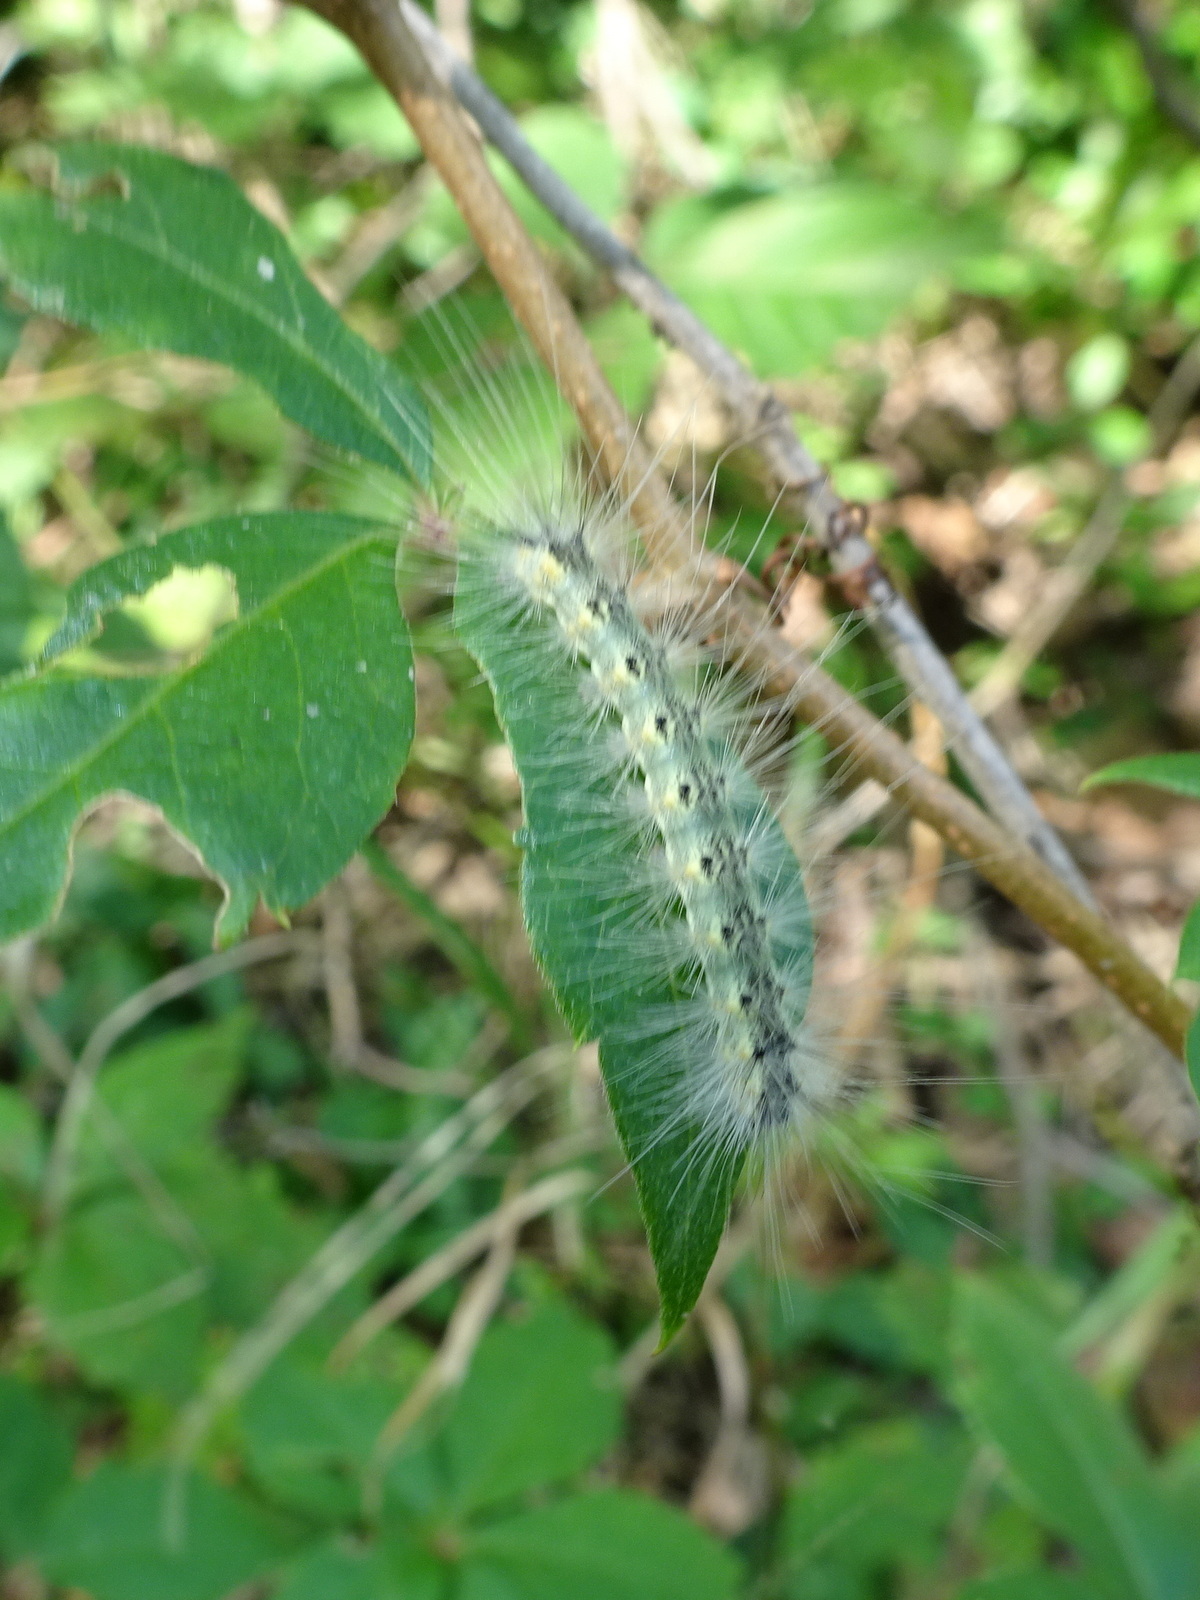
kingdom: Animalia
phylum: Arthropoda
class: Insecta
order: Lepidoptera
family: Erebidae
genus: Hyphantria
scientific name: Hyphantria cunea
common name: American white moth
